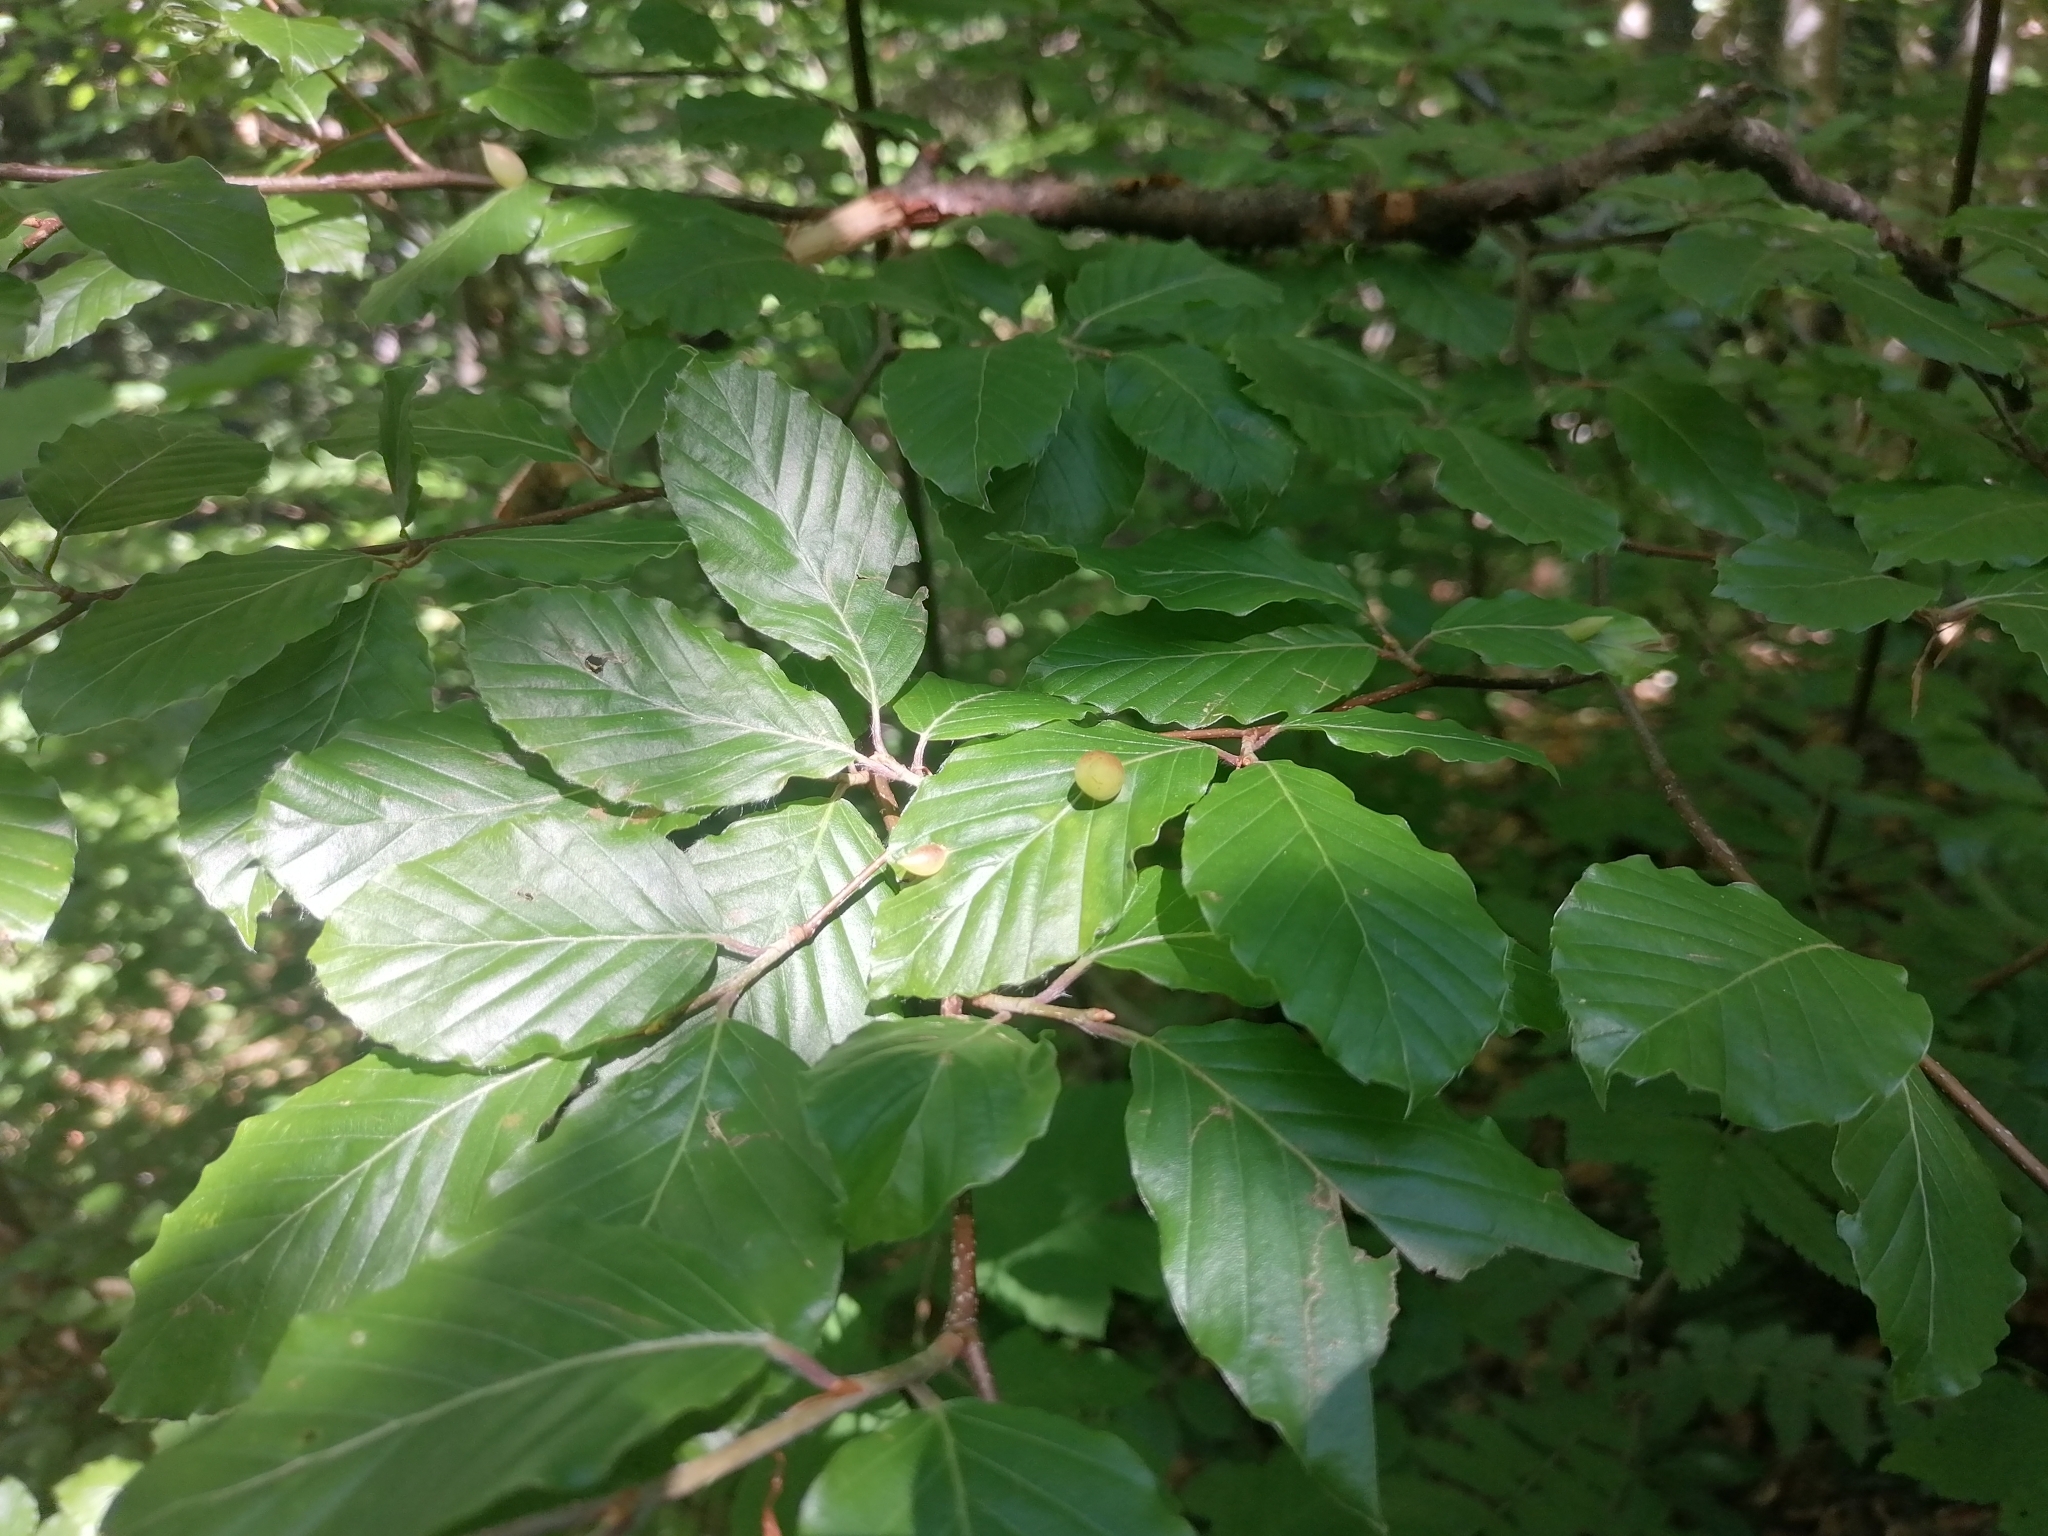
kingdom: Animalia
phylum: Arthropoda
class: Insecta
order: Diptera
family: Cecidomyiidae
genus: Mikiola
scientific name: Mikiola fagi
